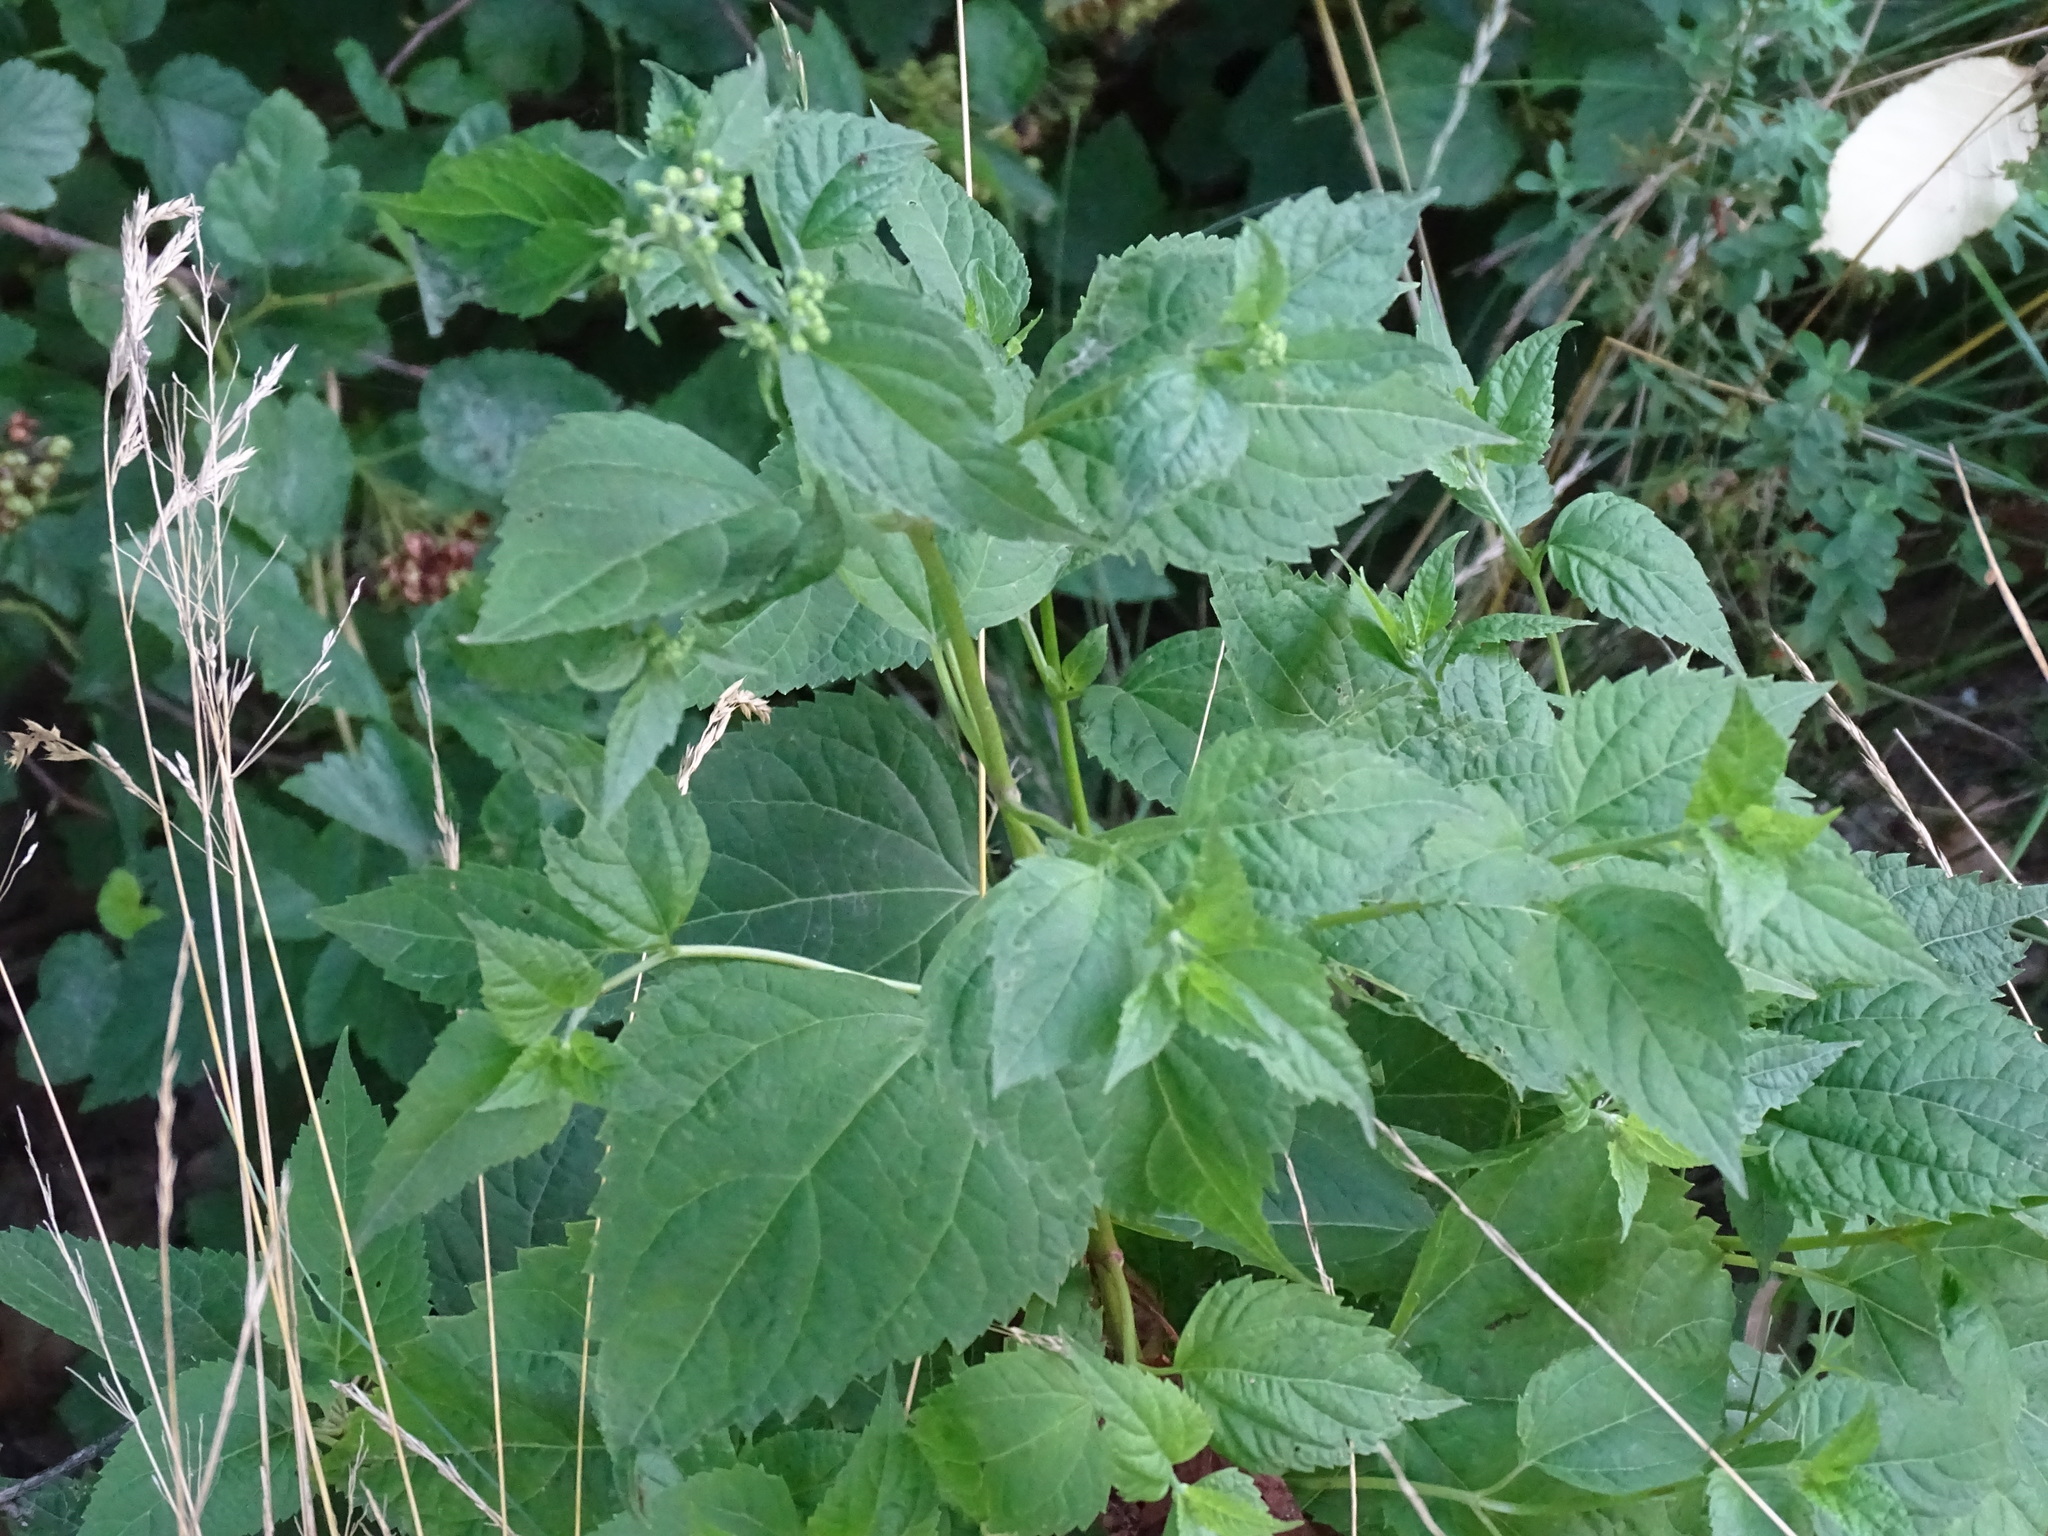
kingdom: Plantae
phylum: Tracheophyta
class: Magnoliopsida
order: Asterales
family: Asteraceae
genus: Ageratina
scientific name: Ageratina altissima
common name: White snakeroot
